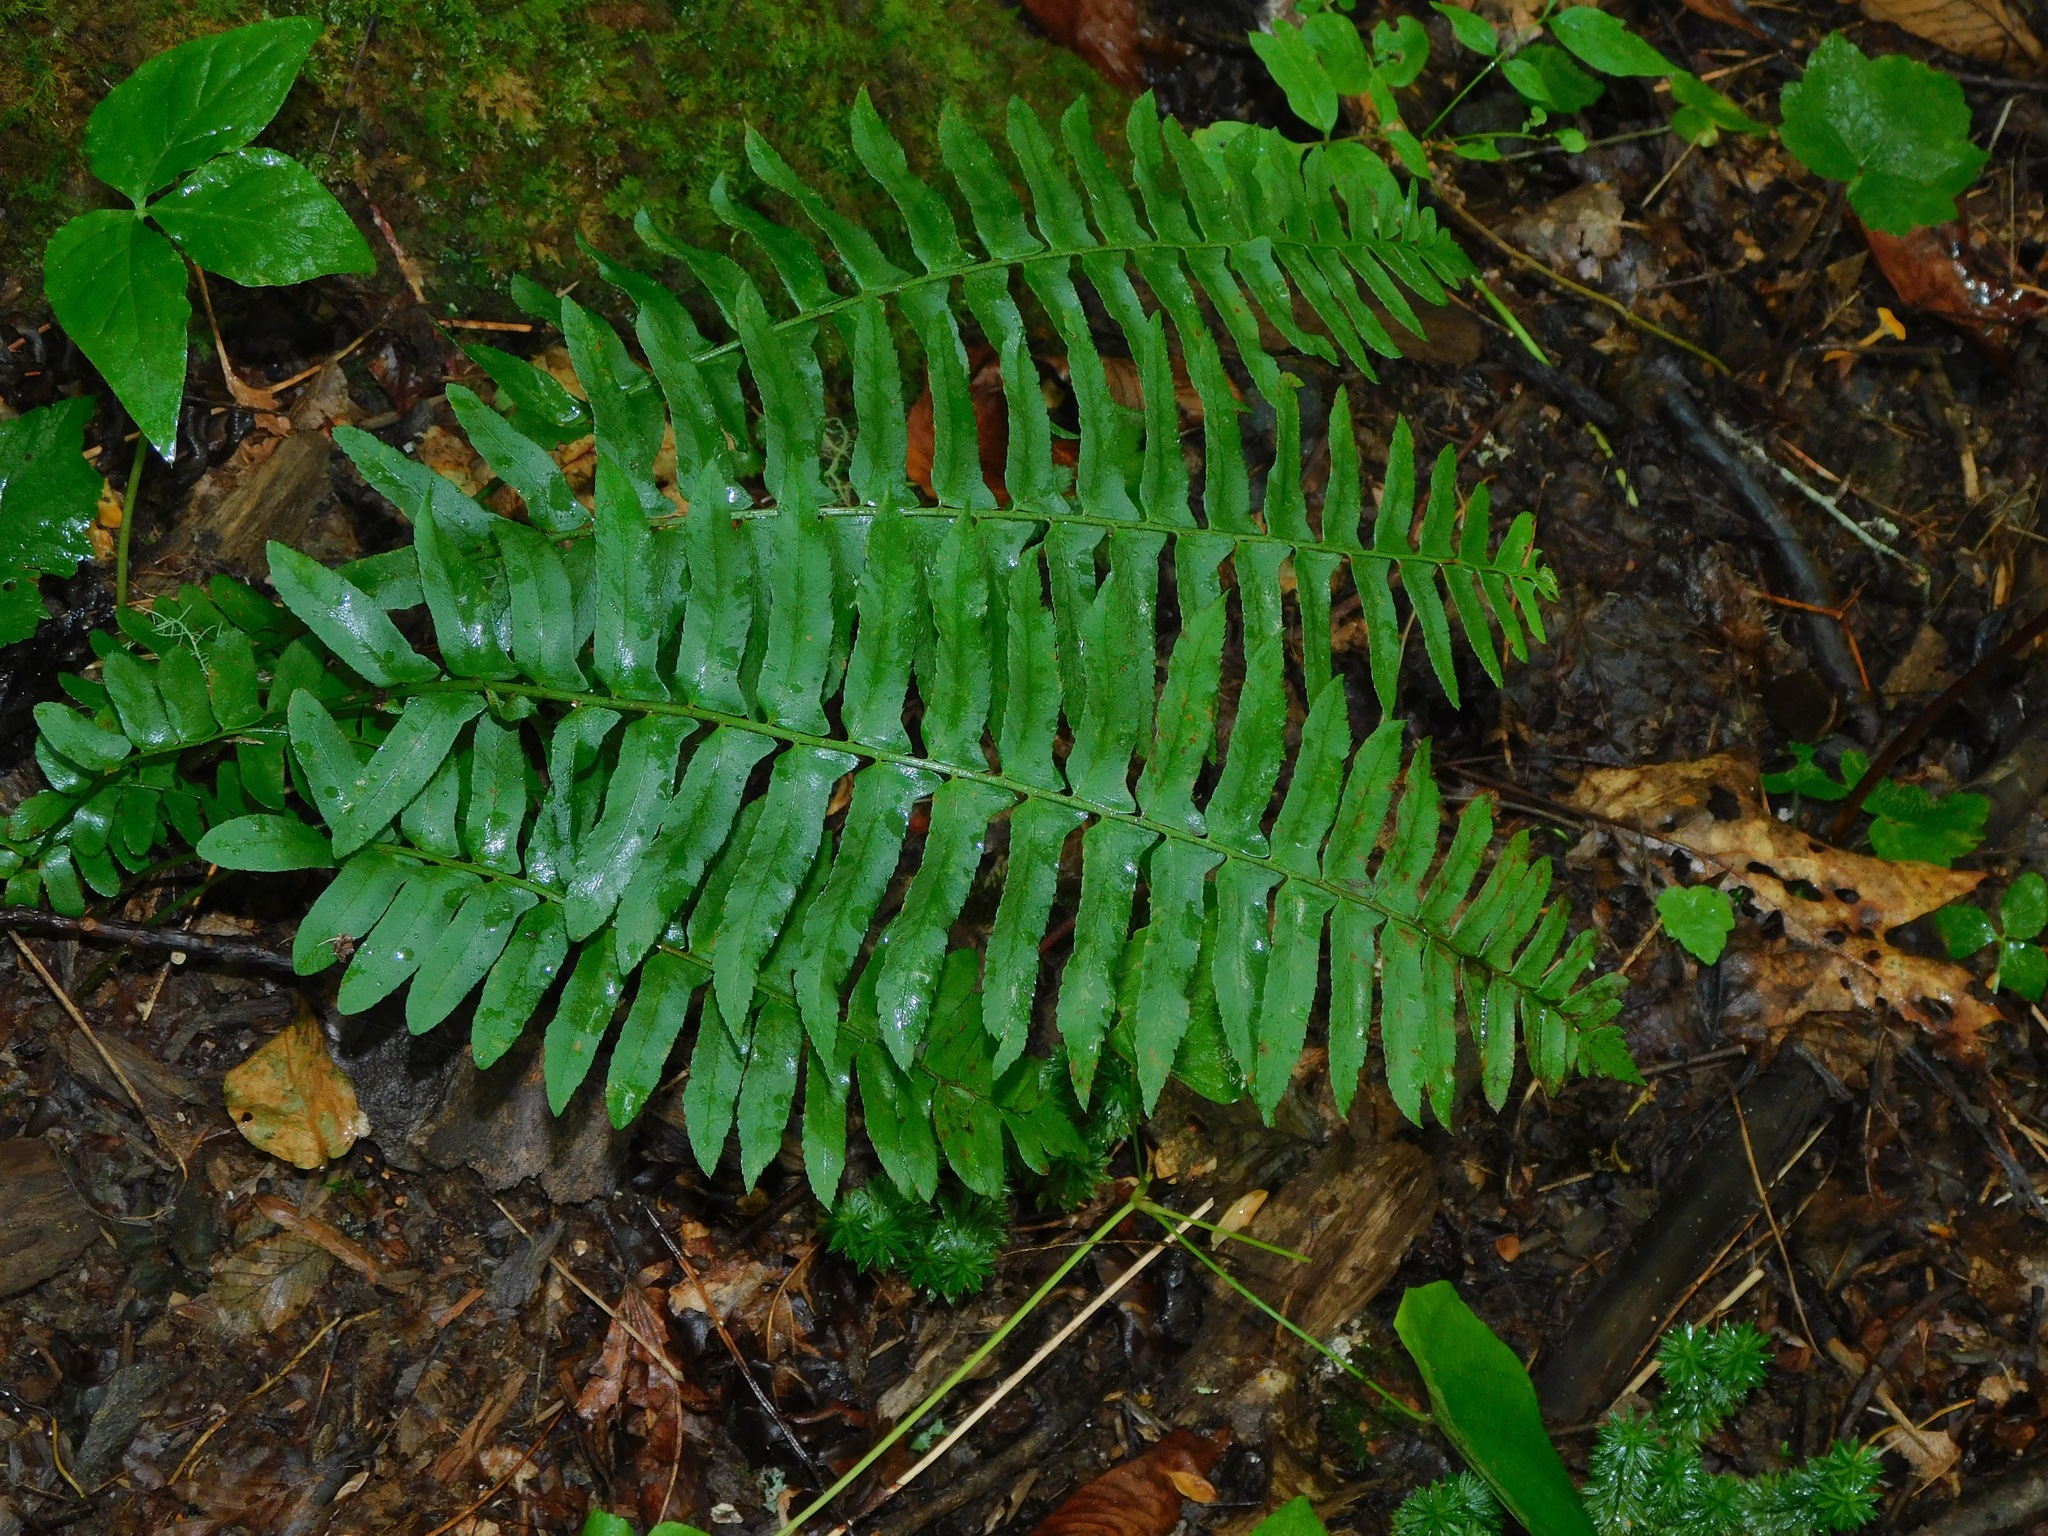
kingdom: Plantae
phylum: Tracheophyta
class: Polypodiopsida
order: Polypodiales
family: Dryopteridaceae
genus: Polystichum
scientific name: Polystichum acrostichoides
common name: Christmas fern
